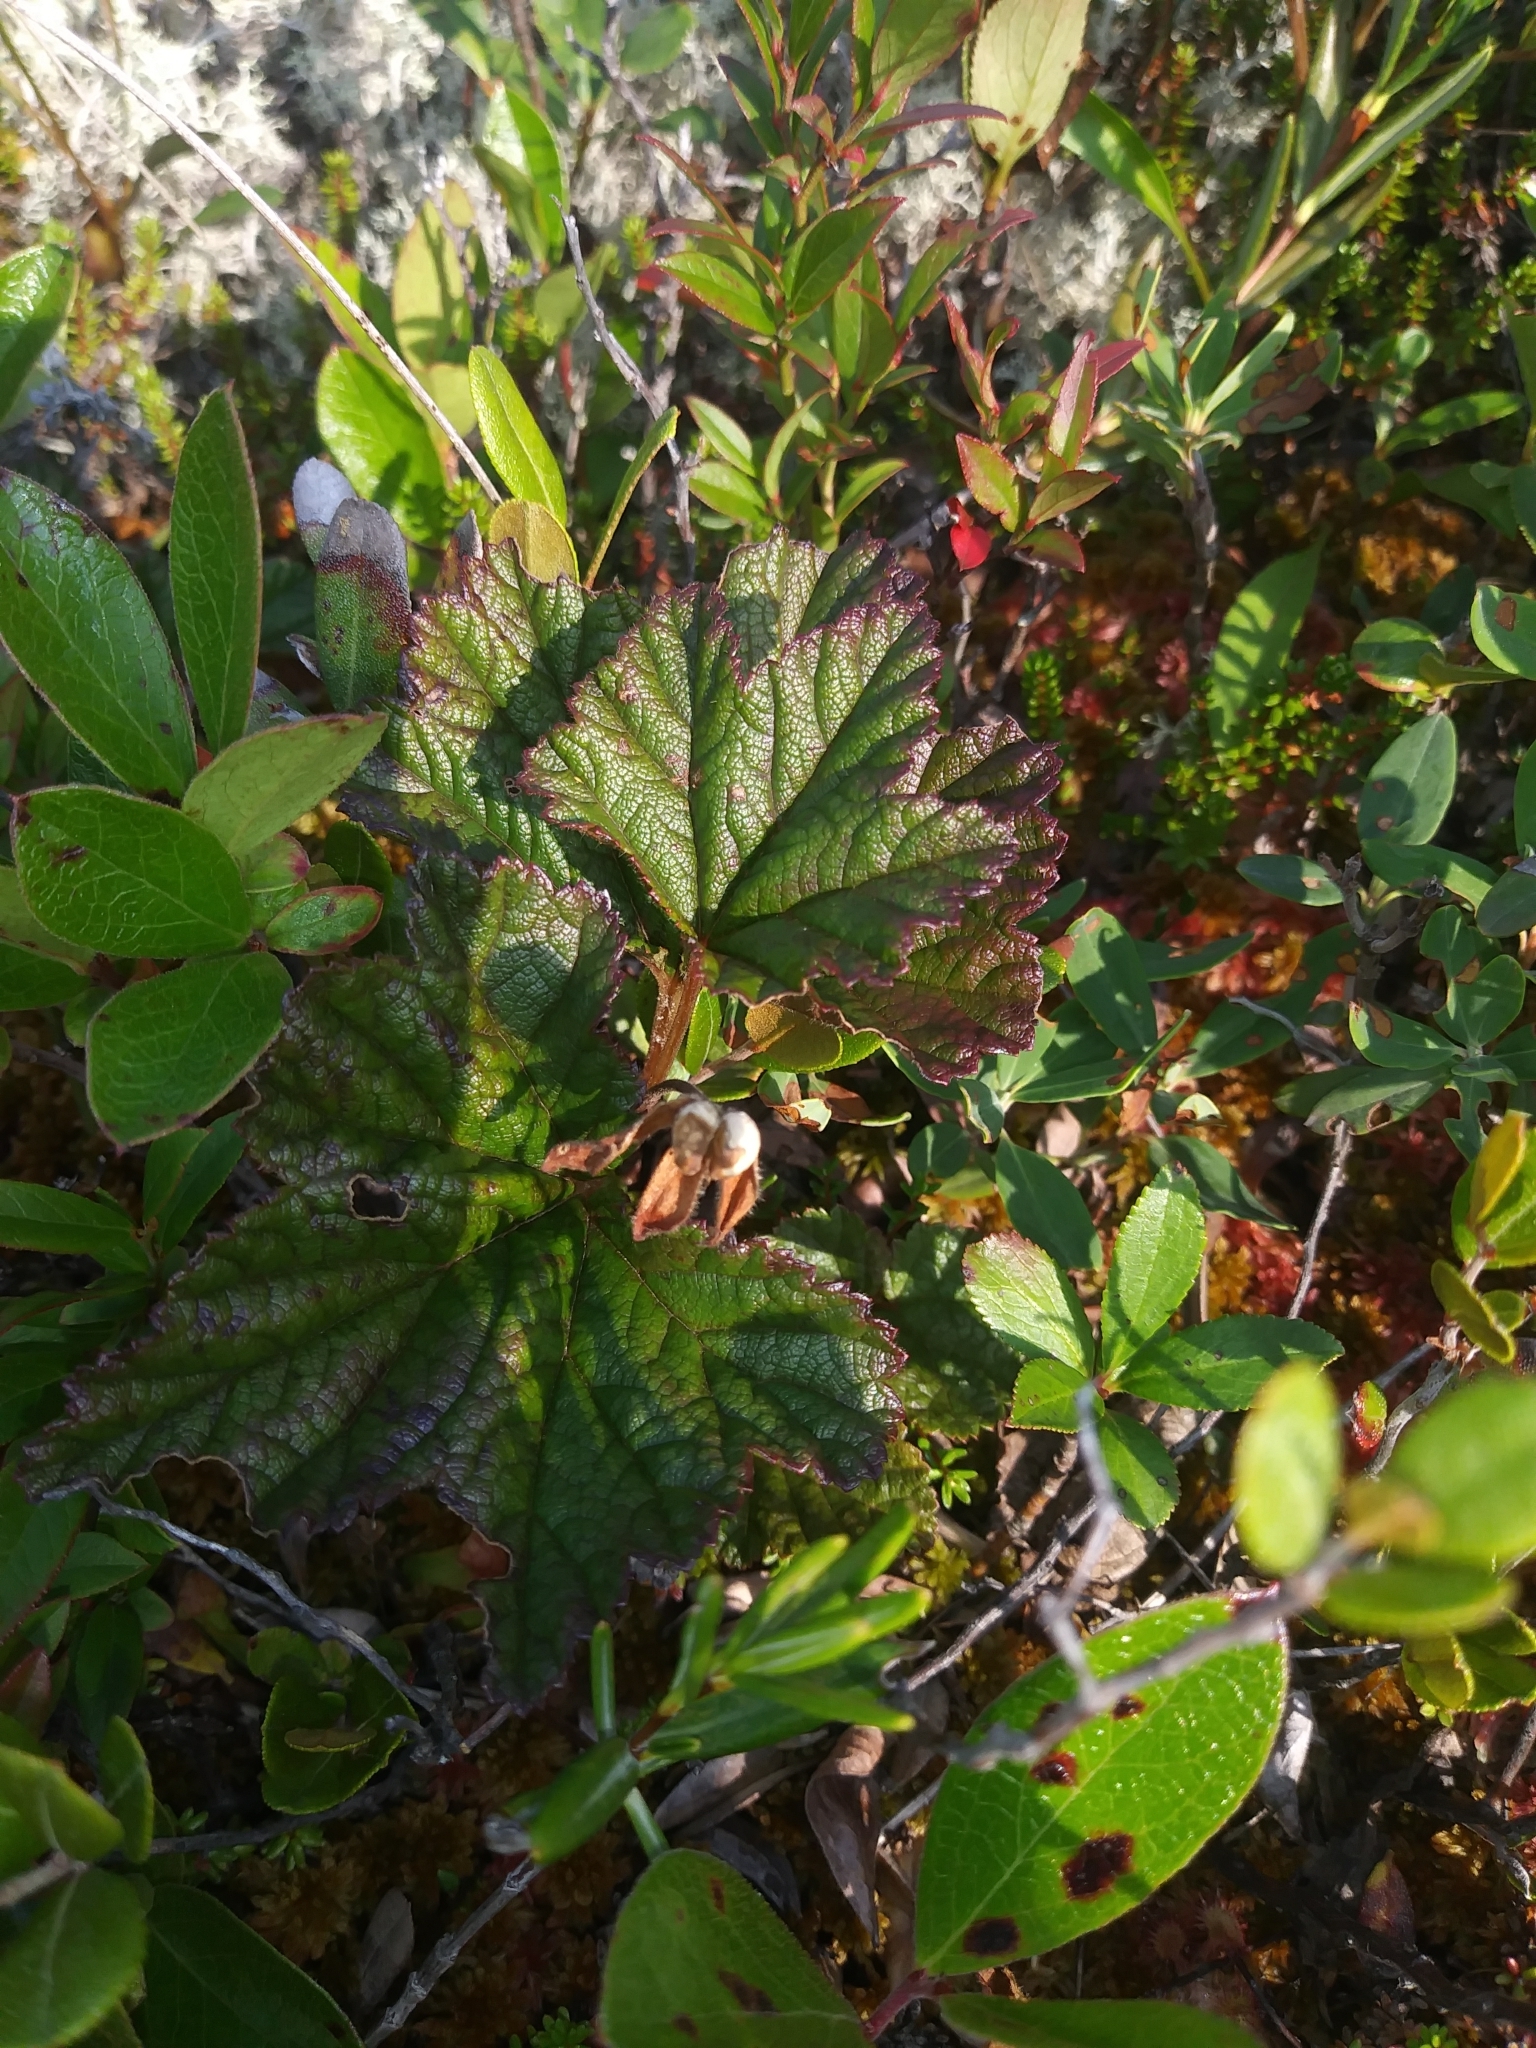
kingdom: Plantae
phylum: Tracheophyta
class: Magnoliopsida
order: Rosales
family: Rosaceae
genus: Rubus
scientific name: Rubus chamaemorus
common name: Cloudberry
